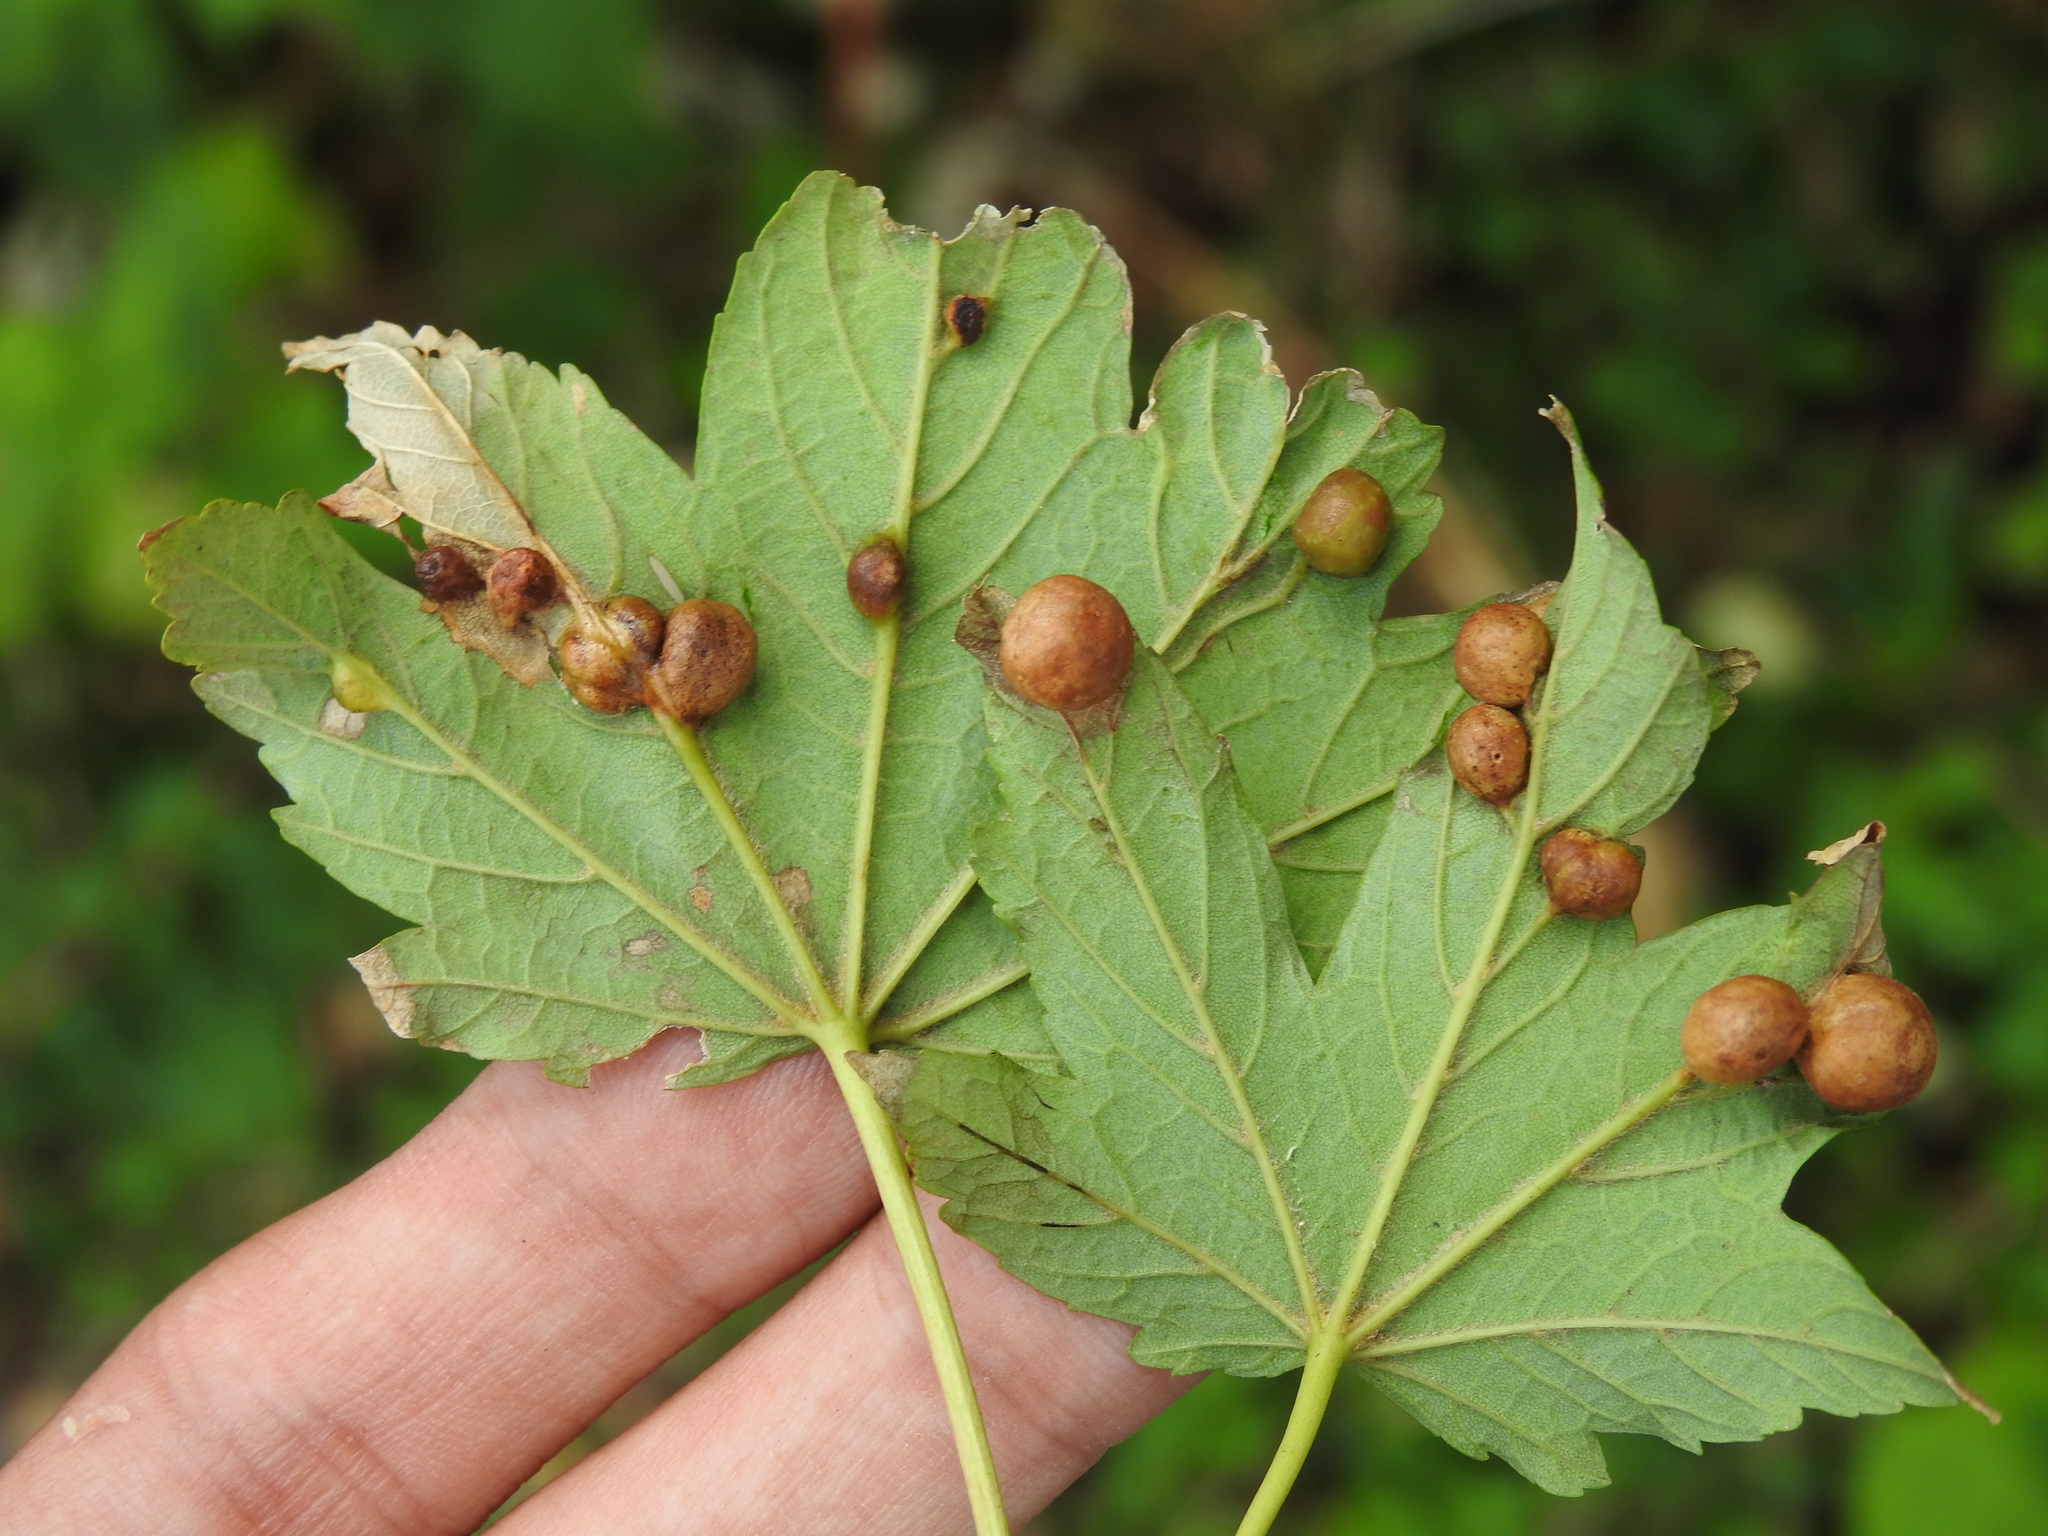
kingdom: Animalia
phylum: Arthropoda
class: Insecta
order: Hymenoptera
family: Cynipidae
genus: Pediaspis
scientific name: Pediaspis aceris
